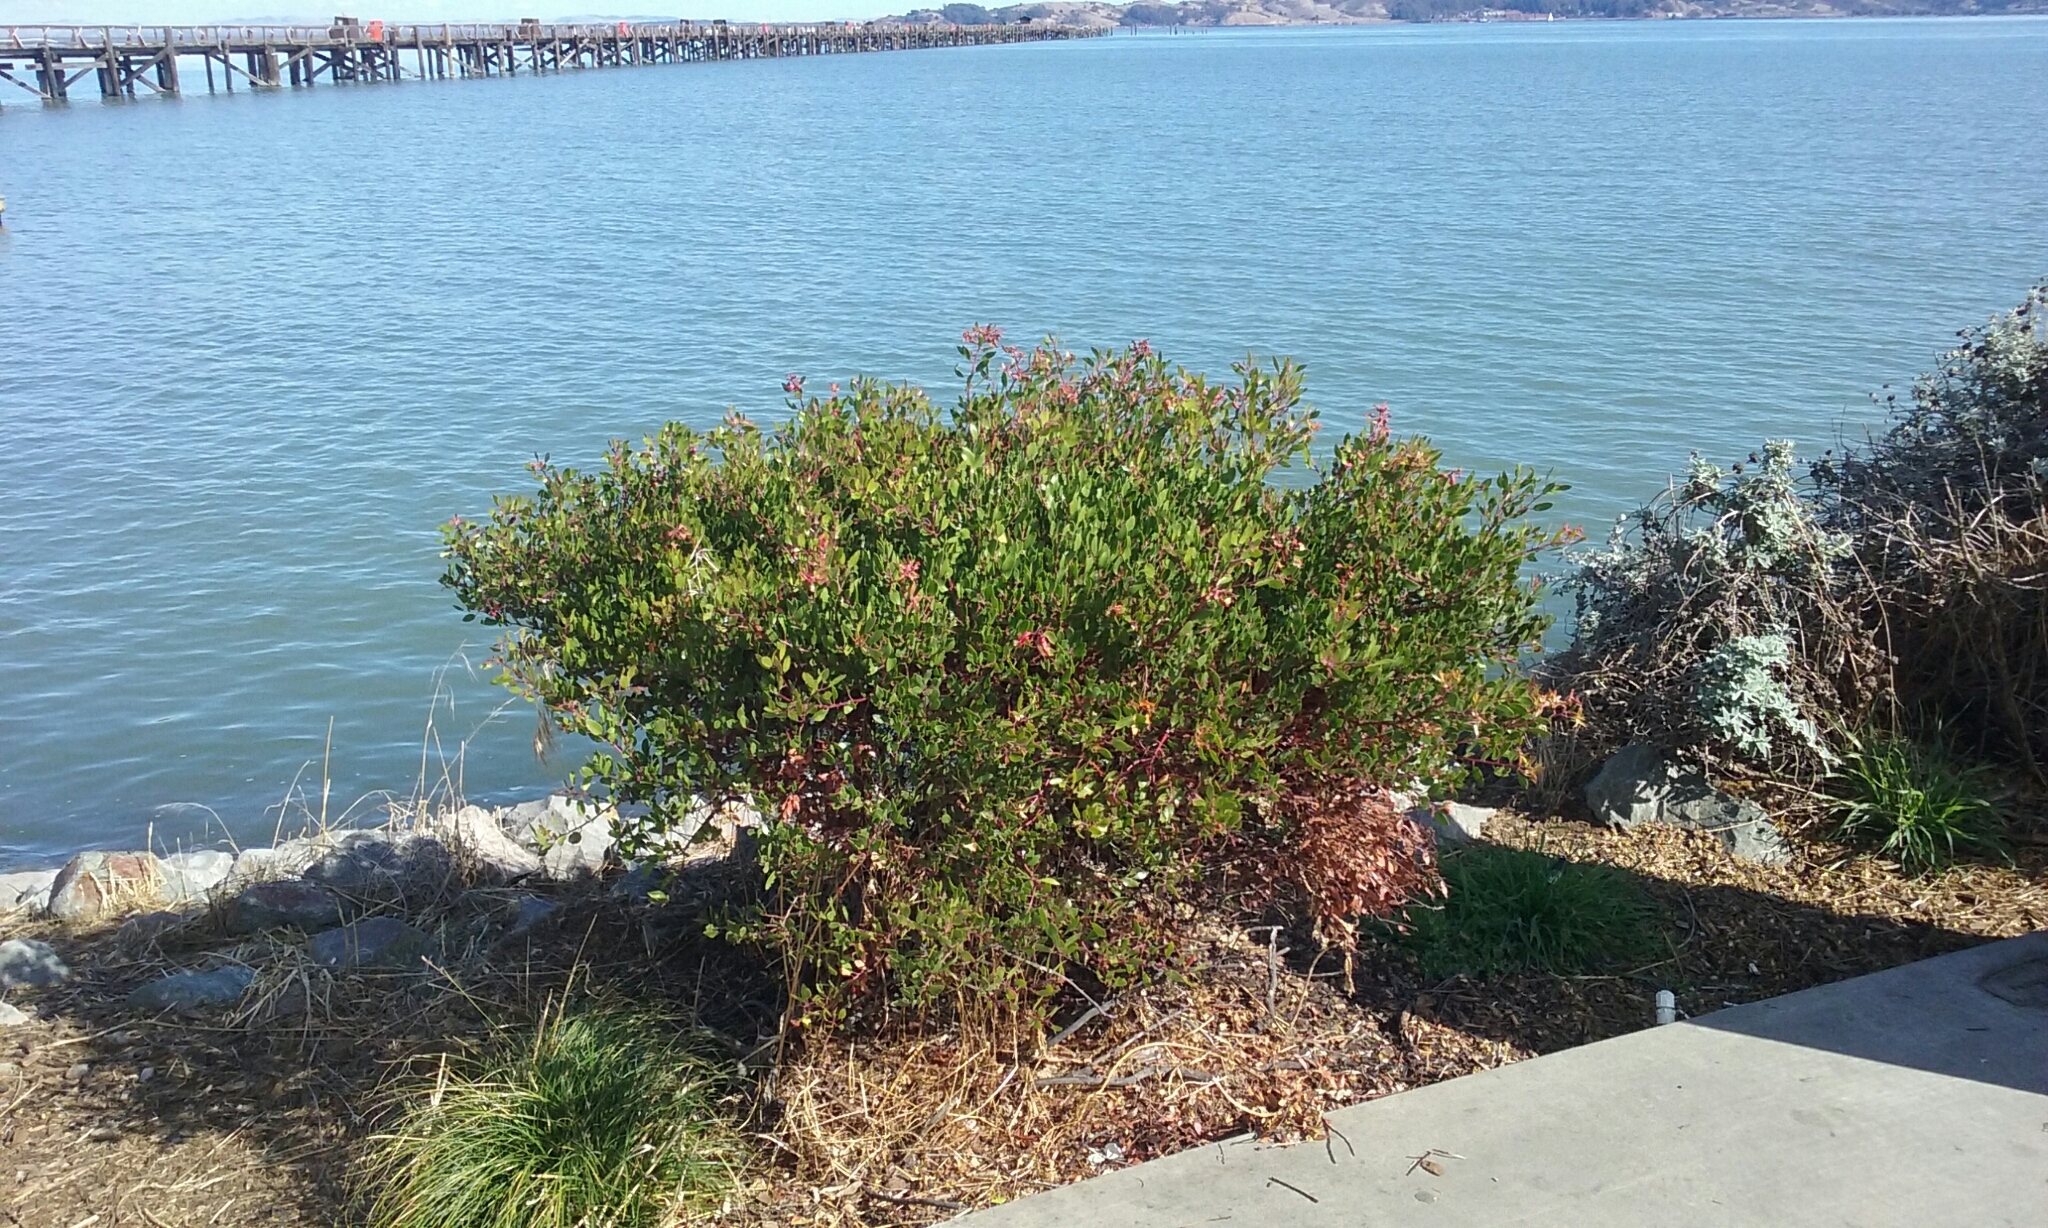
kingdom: Animalia
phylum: Arthropoda
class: Insecta
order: Hemiptera
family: Aphididae
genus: Tamalia
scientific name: Tamalia coweni
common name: Manzanita leafgall aphid
